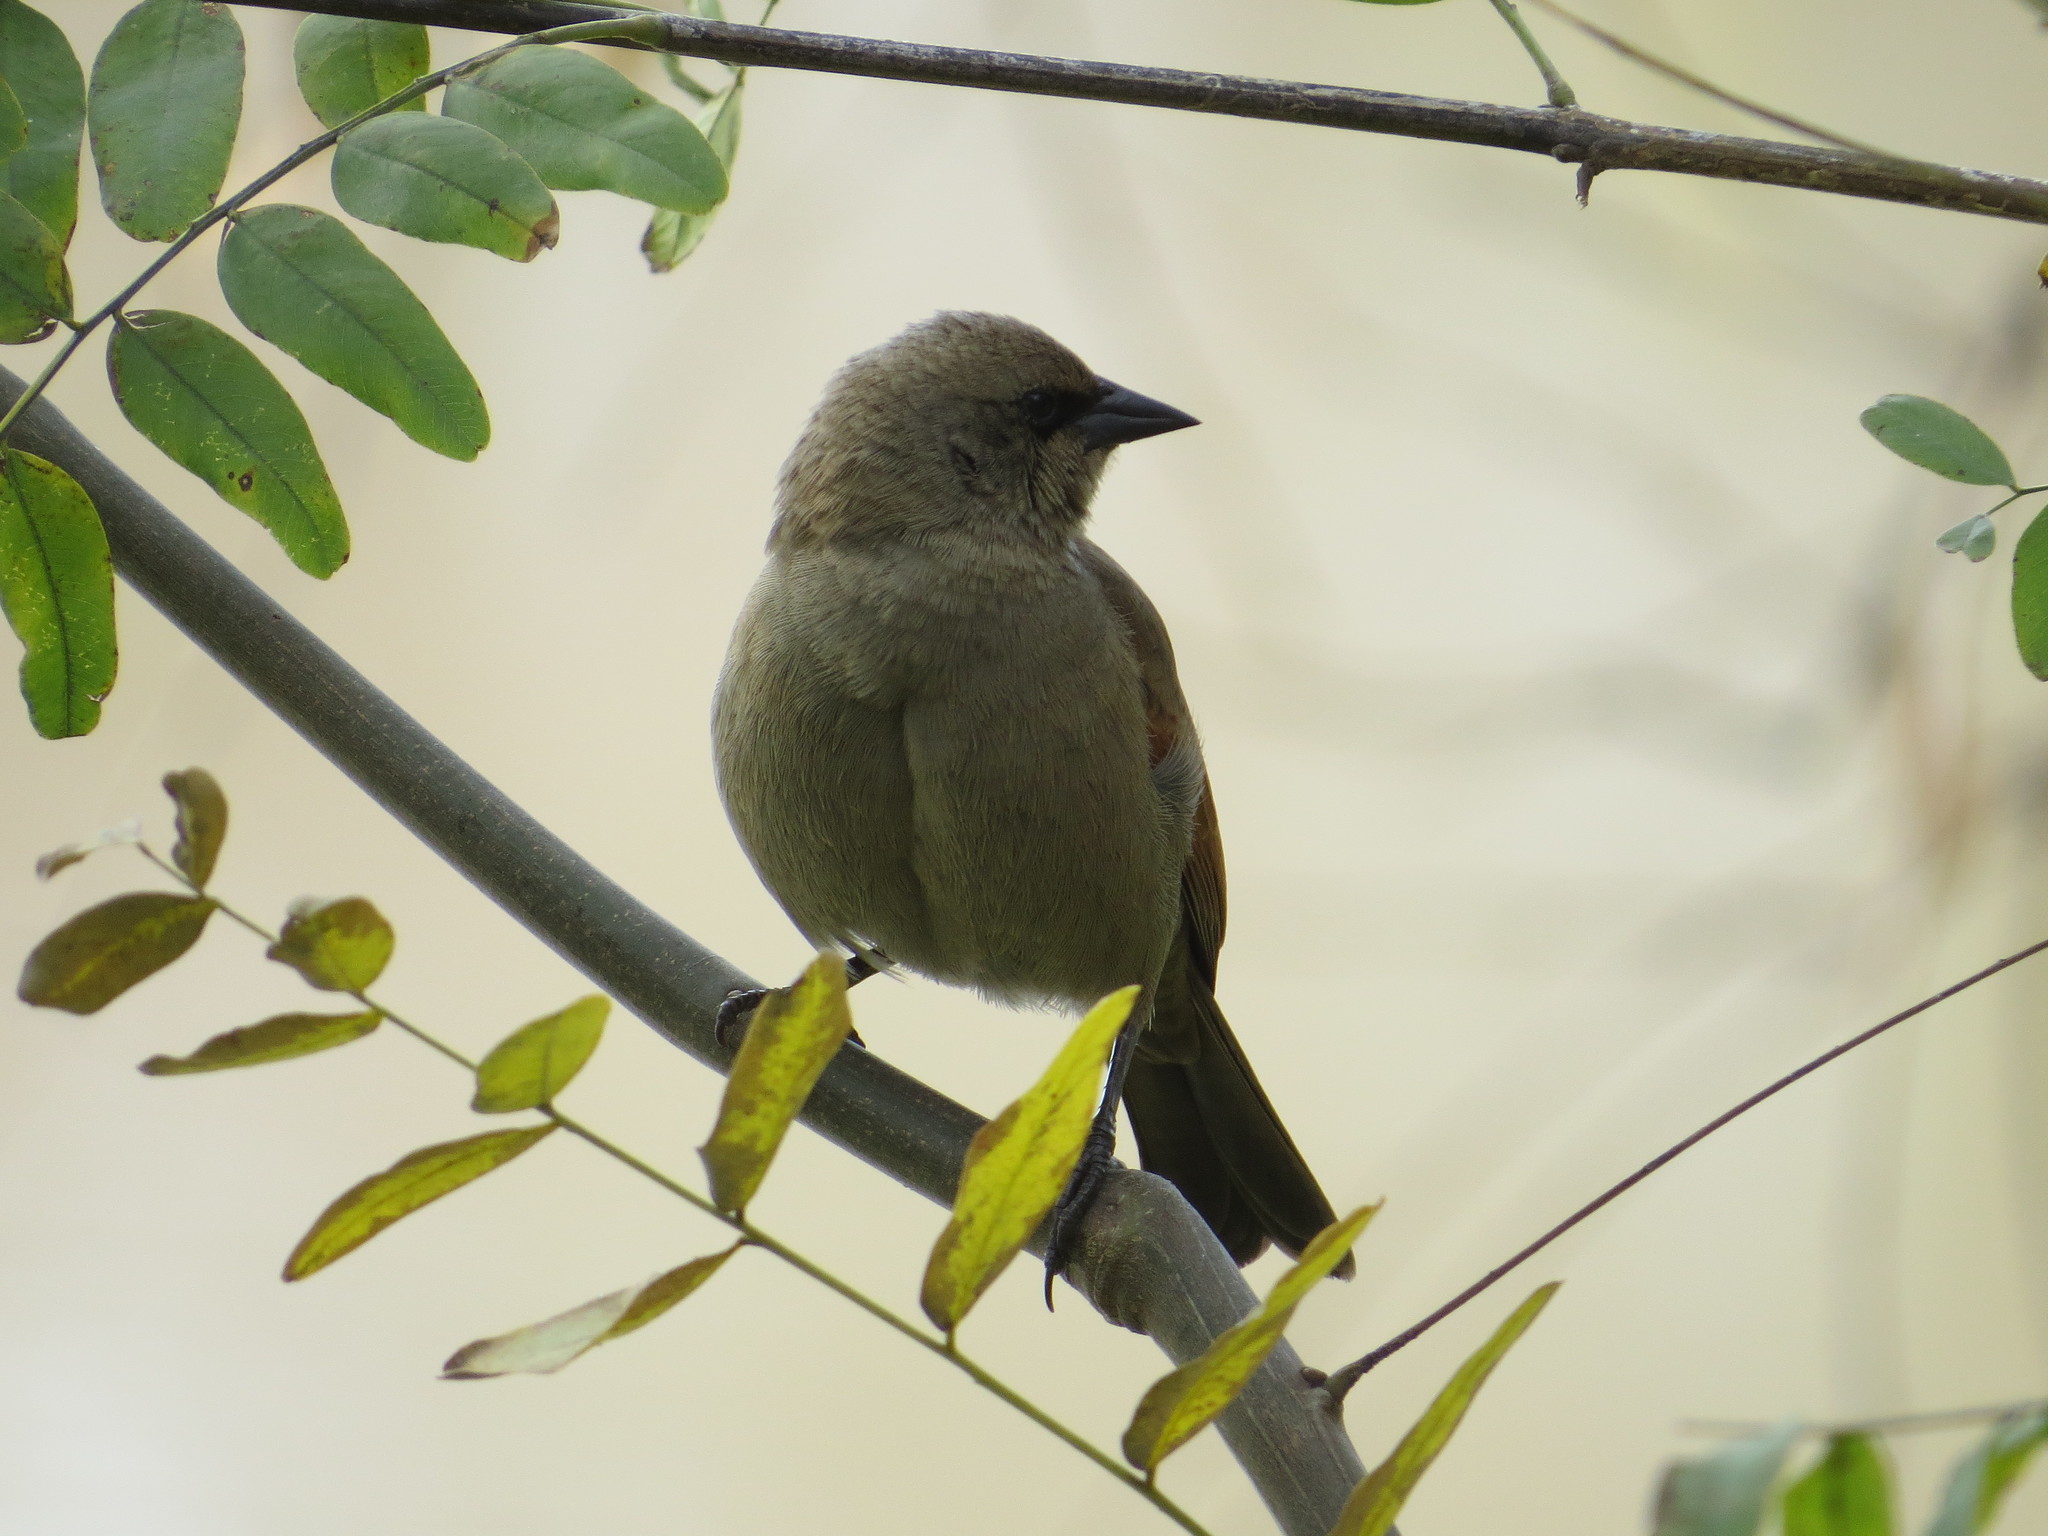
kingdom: Animalia
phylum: Chordata
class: Aves
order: Passeriformes
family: Icteridae
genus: Agelaioides
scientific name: Agelaioides badius
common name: Baywing
